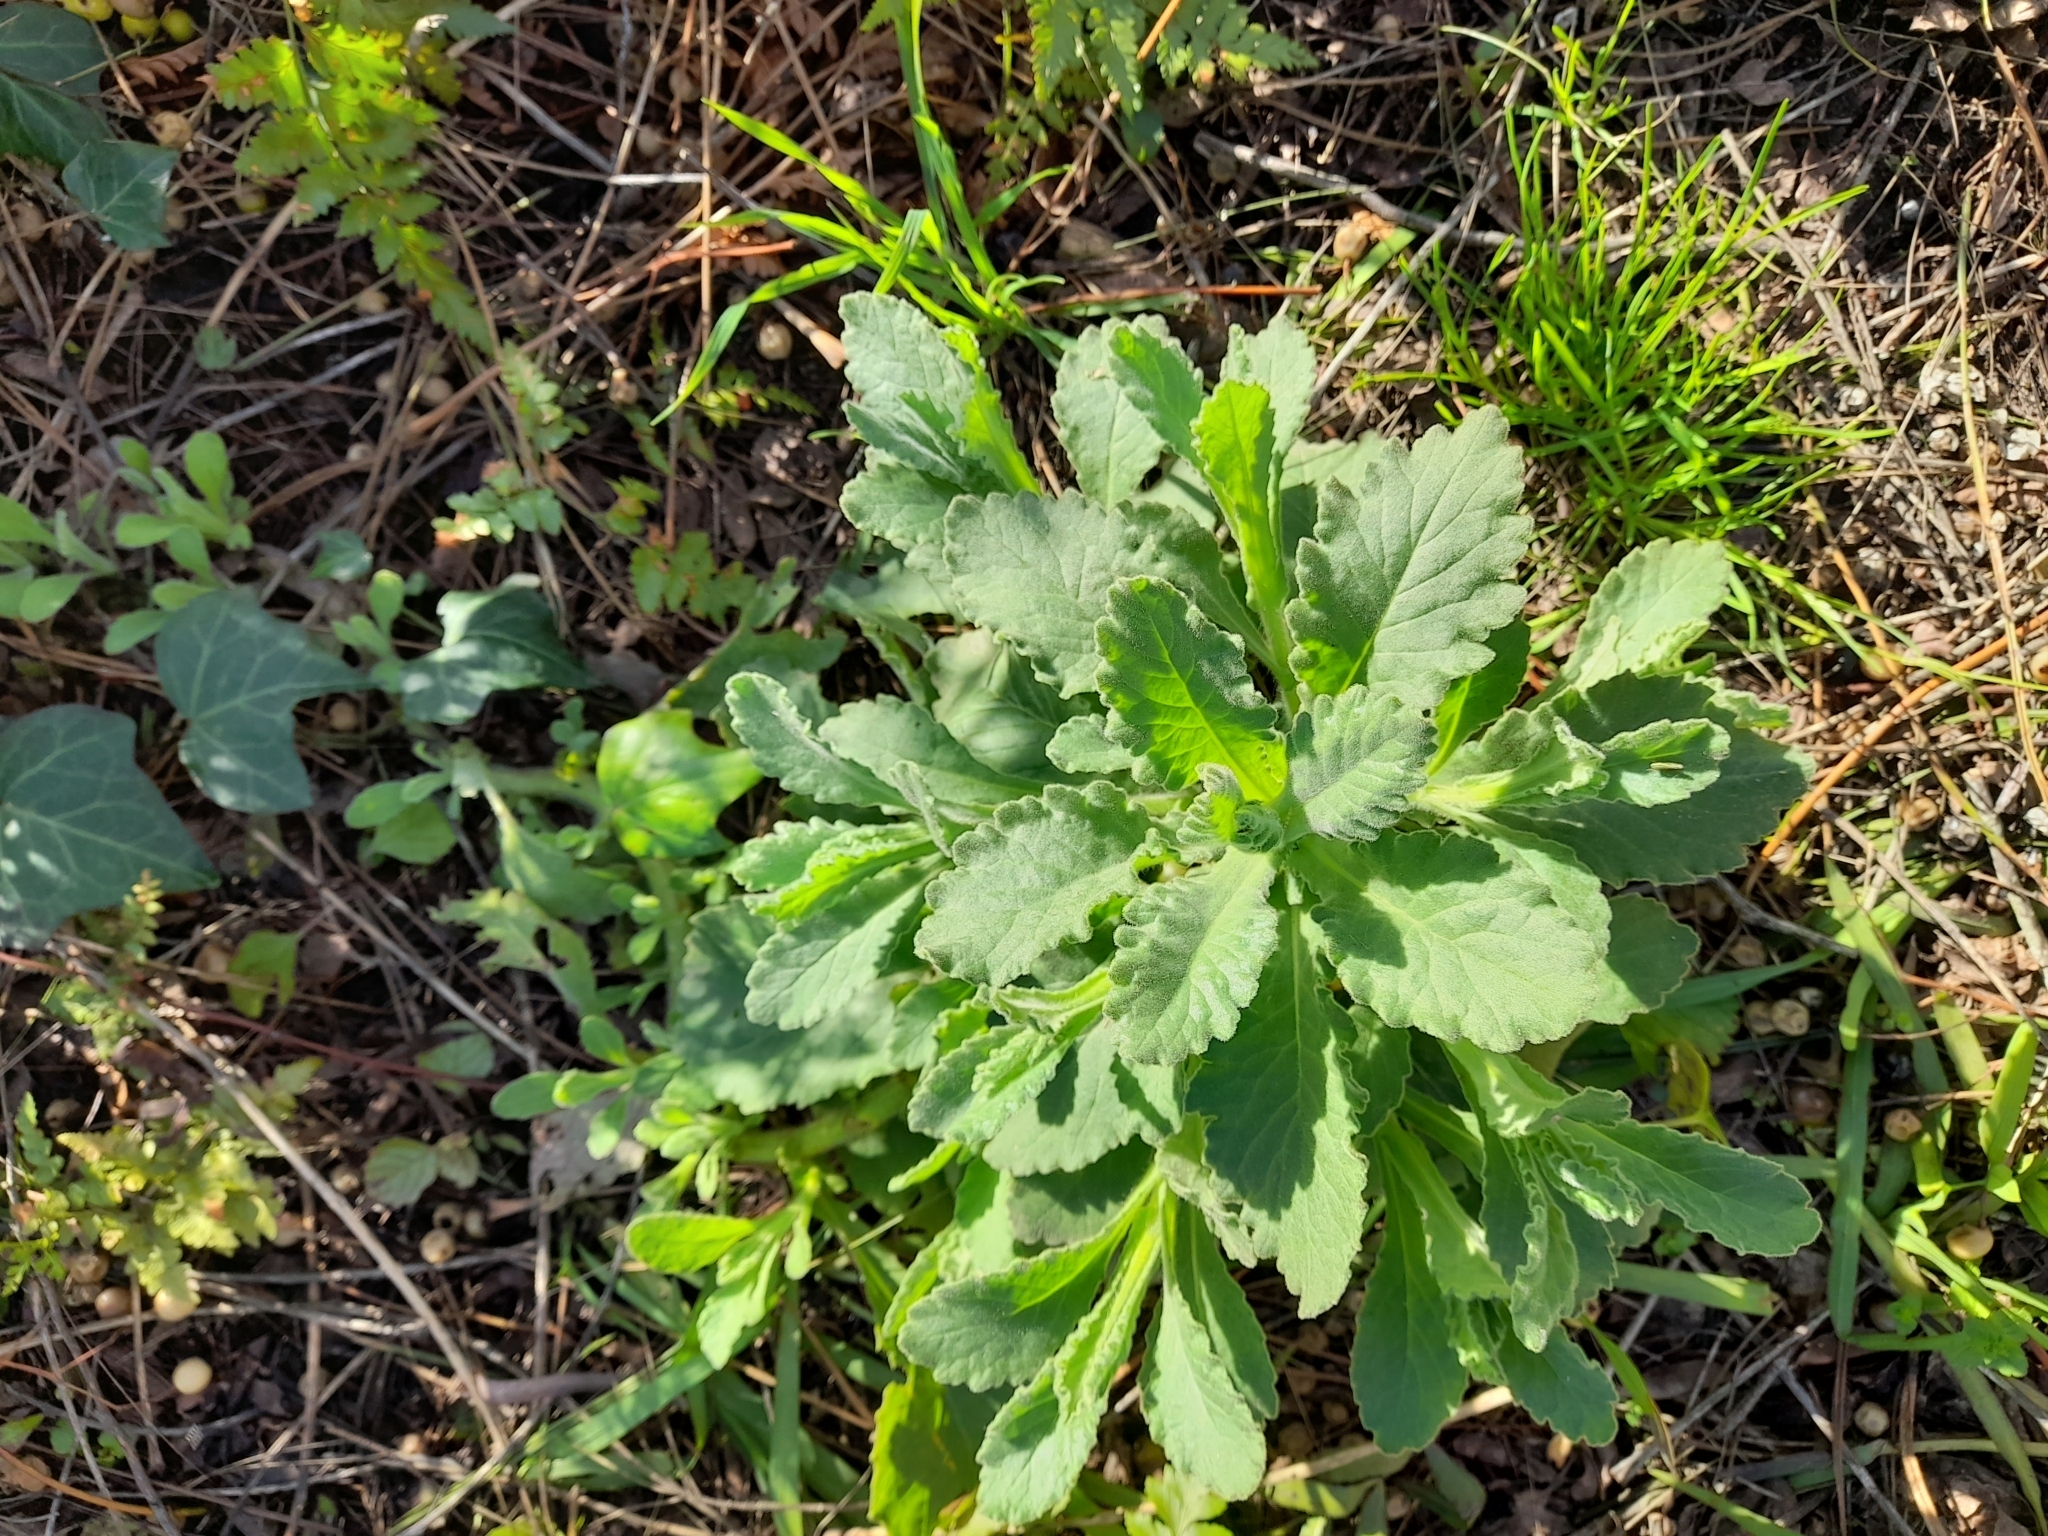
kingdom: Plantae
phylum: Tracheophyta
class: Magnoliopsida
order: Asterales
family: Asteraceae
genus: Senecio
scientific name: Senecio selloi
